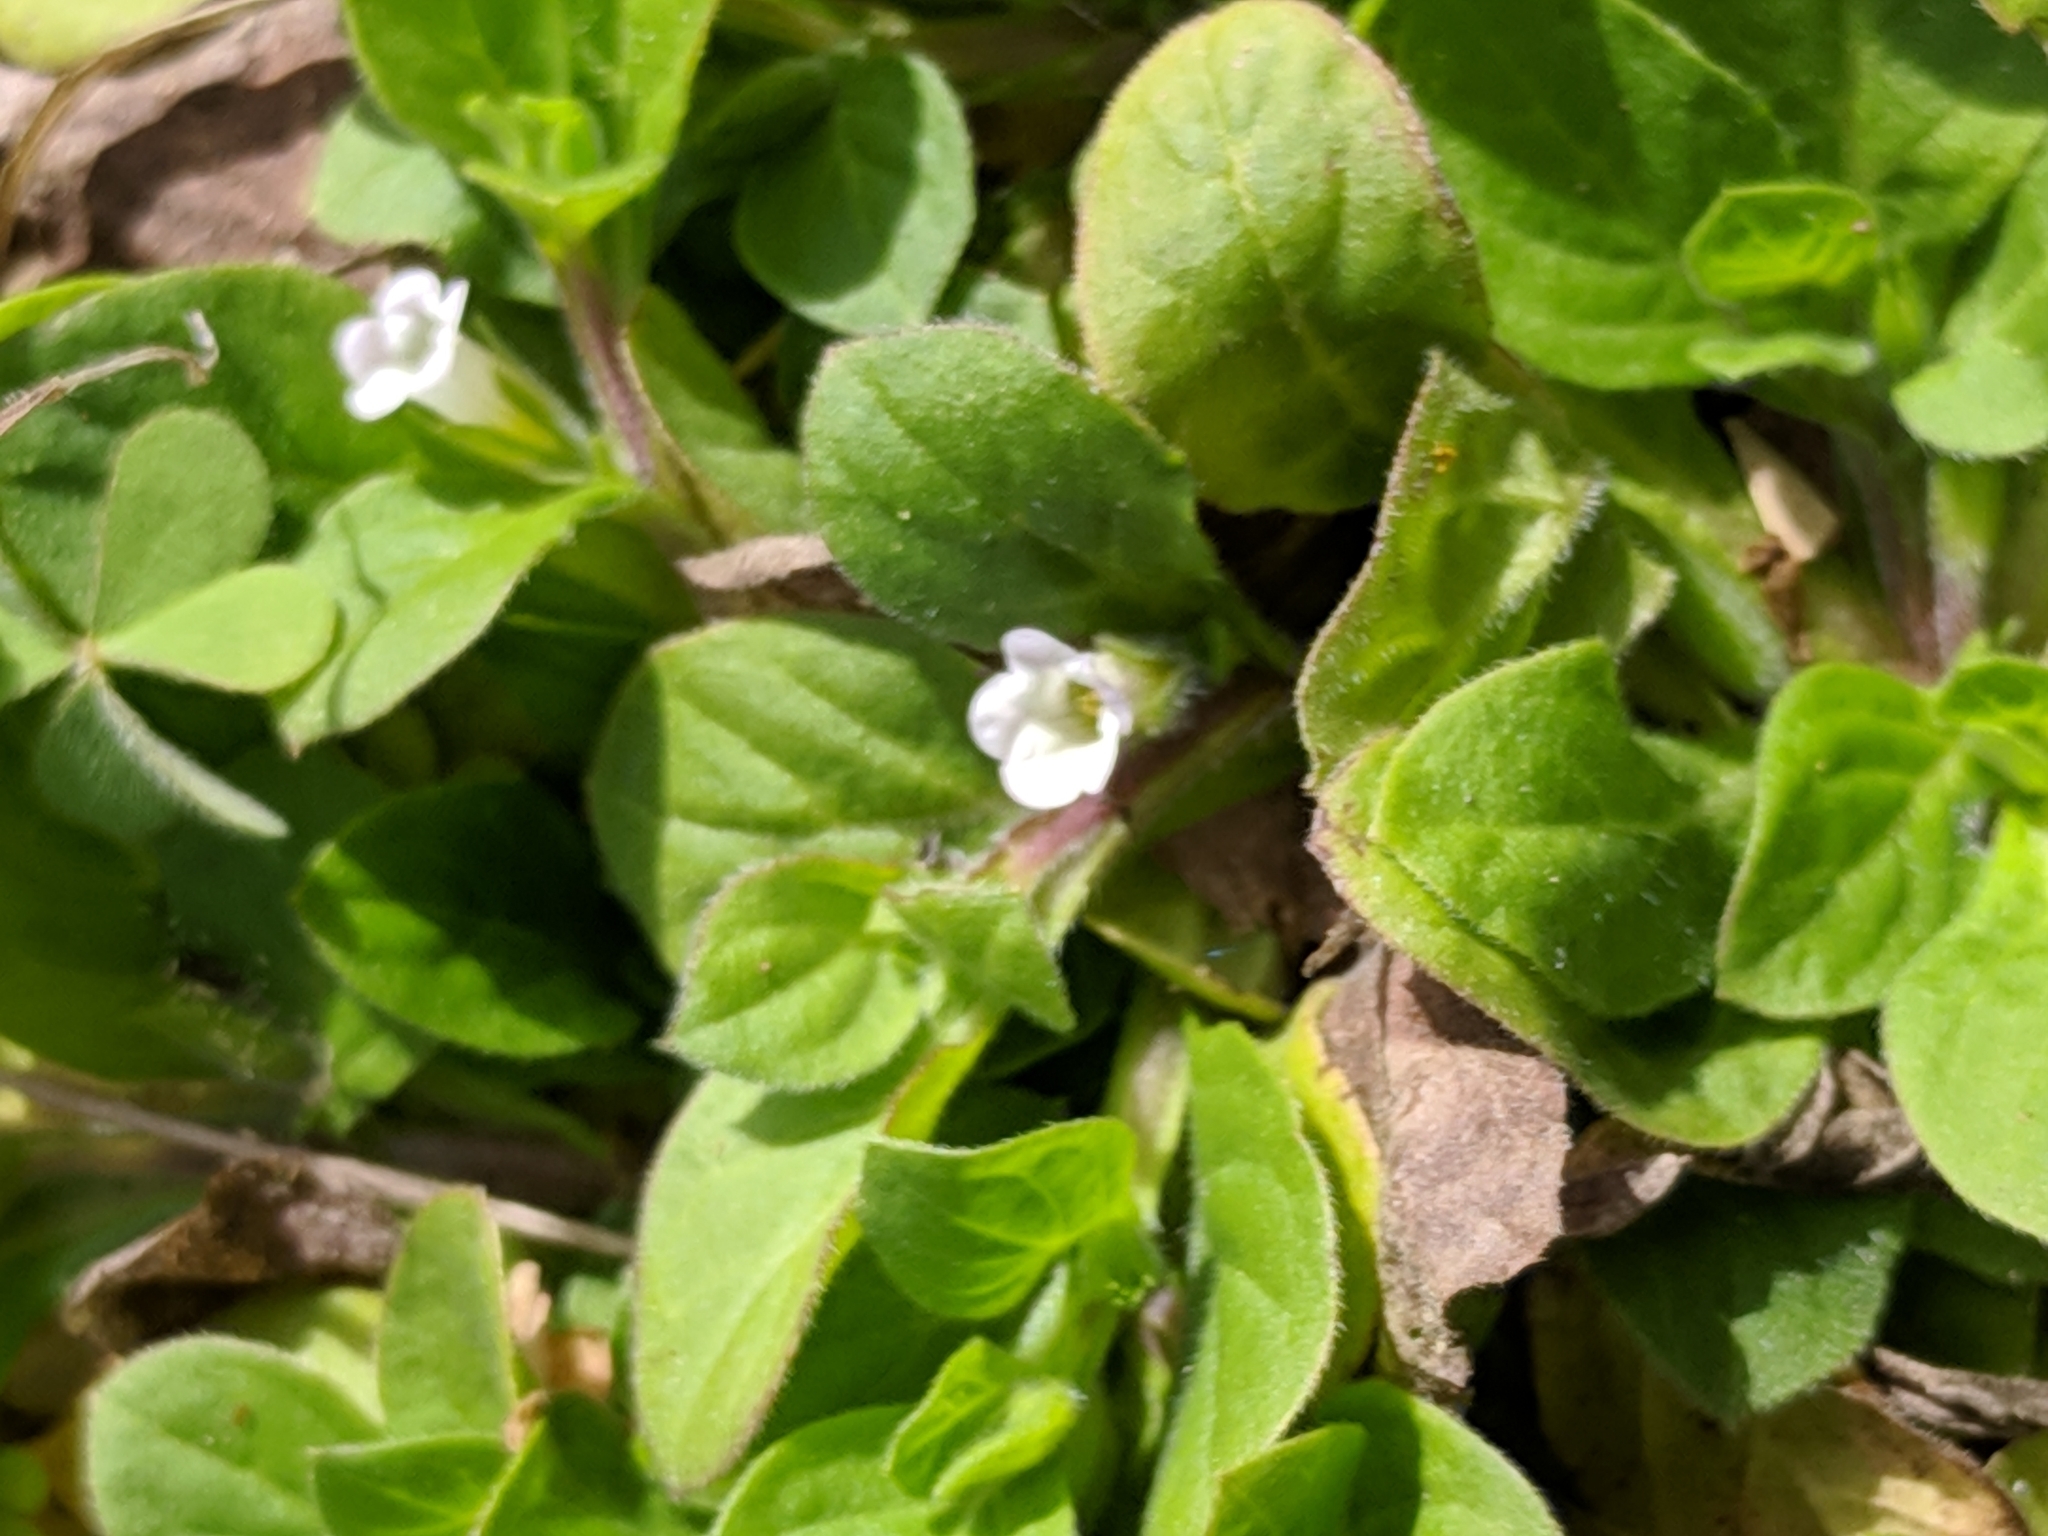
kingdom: Plantae
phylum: Tracheophyta
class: Magnoliopsida
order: Boraginales
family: Namaceae
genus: Nama
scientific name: Nama jamaicensis
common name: Jamaicanweed
